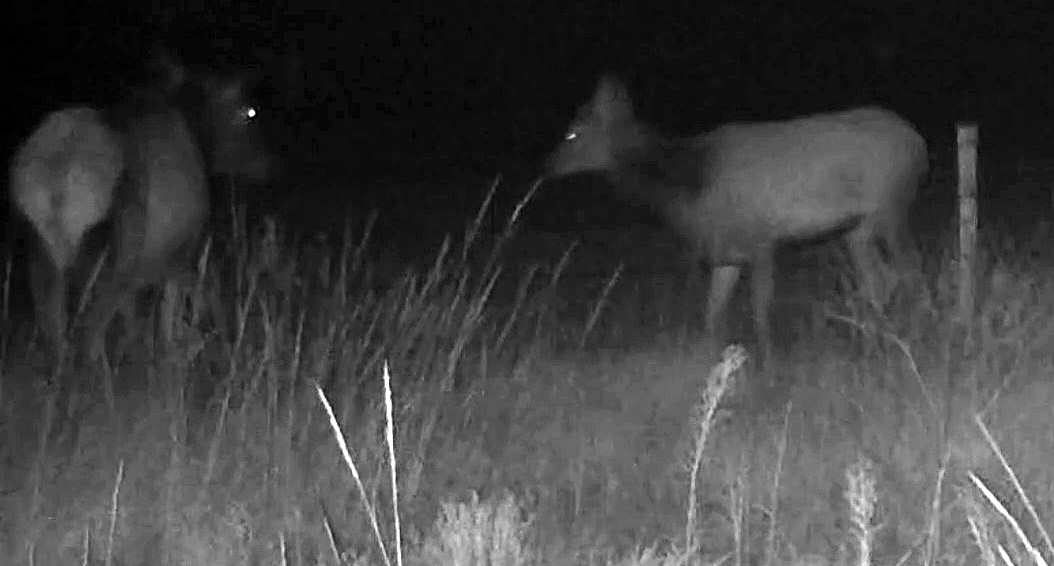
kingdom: Animalia
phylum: Chordata
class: Mammalia
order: Artiodactyla
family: Cervidae
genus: Cervus
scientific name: Cervus elaphus
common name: Red deer
